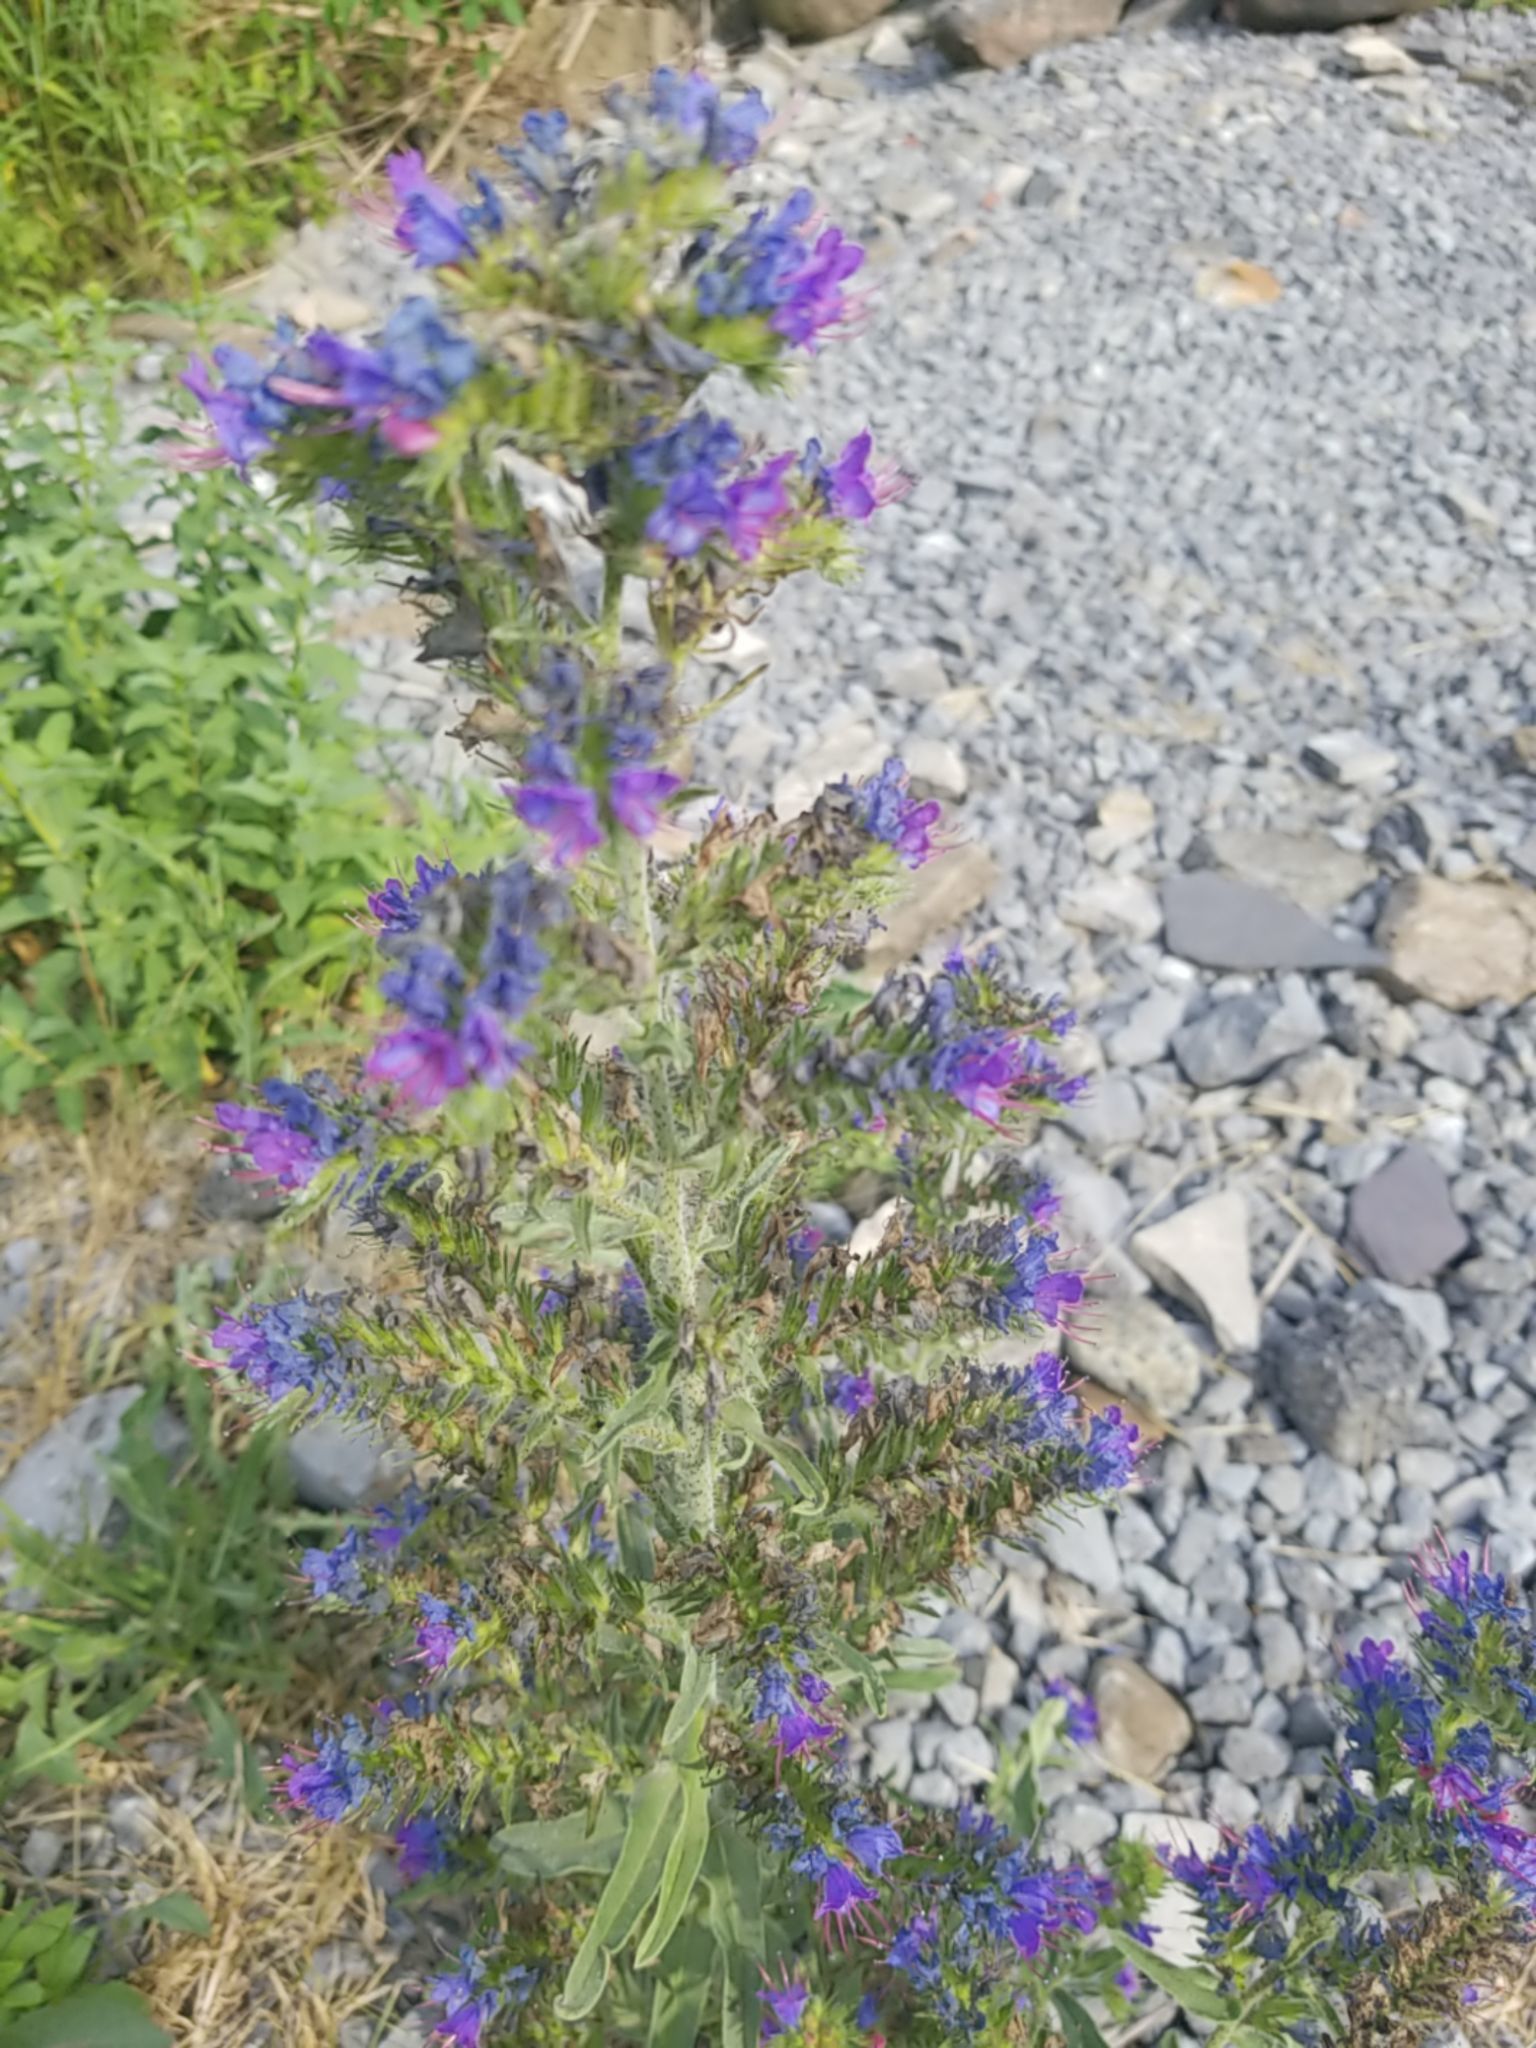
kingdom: Plantae
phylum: Tracheophyta
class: Magnoliopsida
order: Boraginales
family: Boraginaceae
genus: Echium
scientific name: Echium vulgare
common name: Common viper's bugloss
